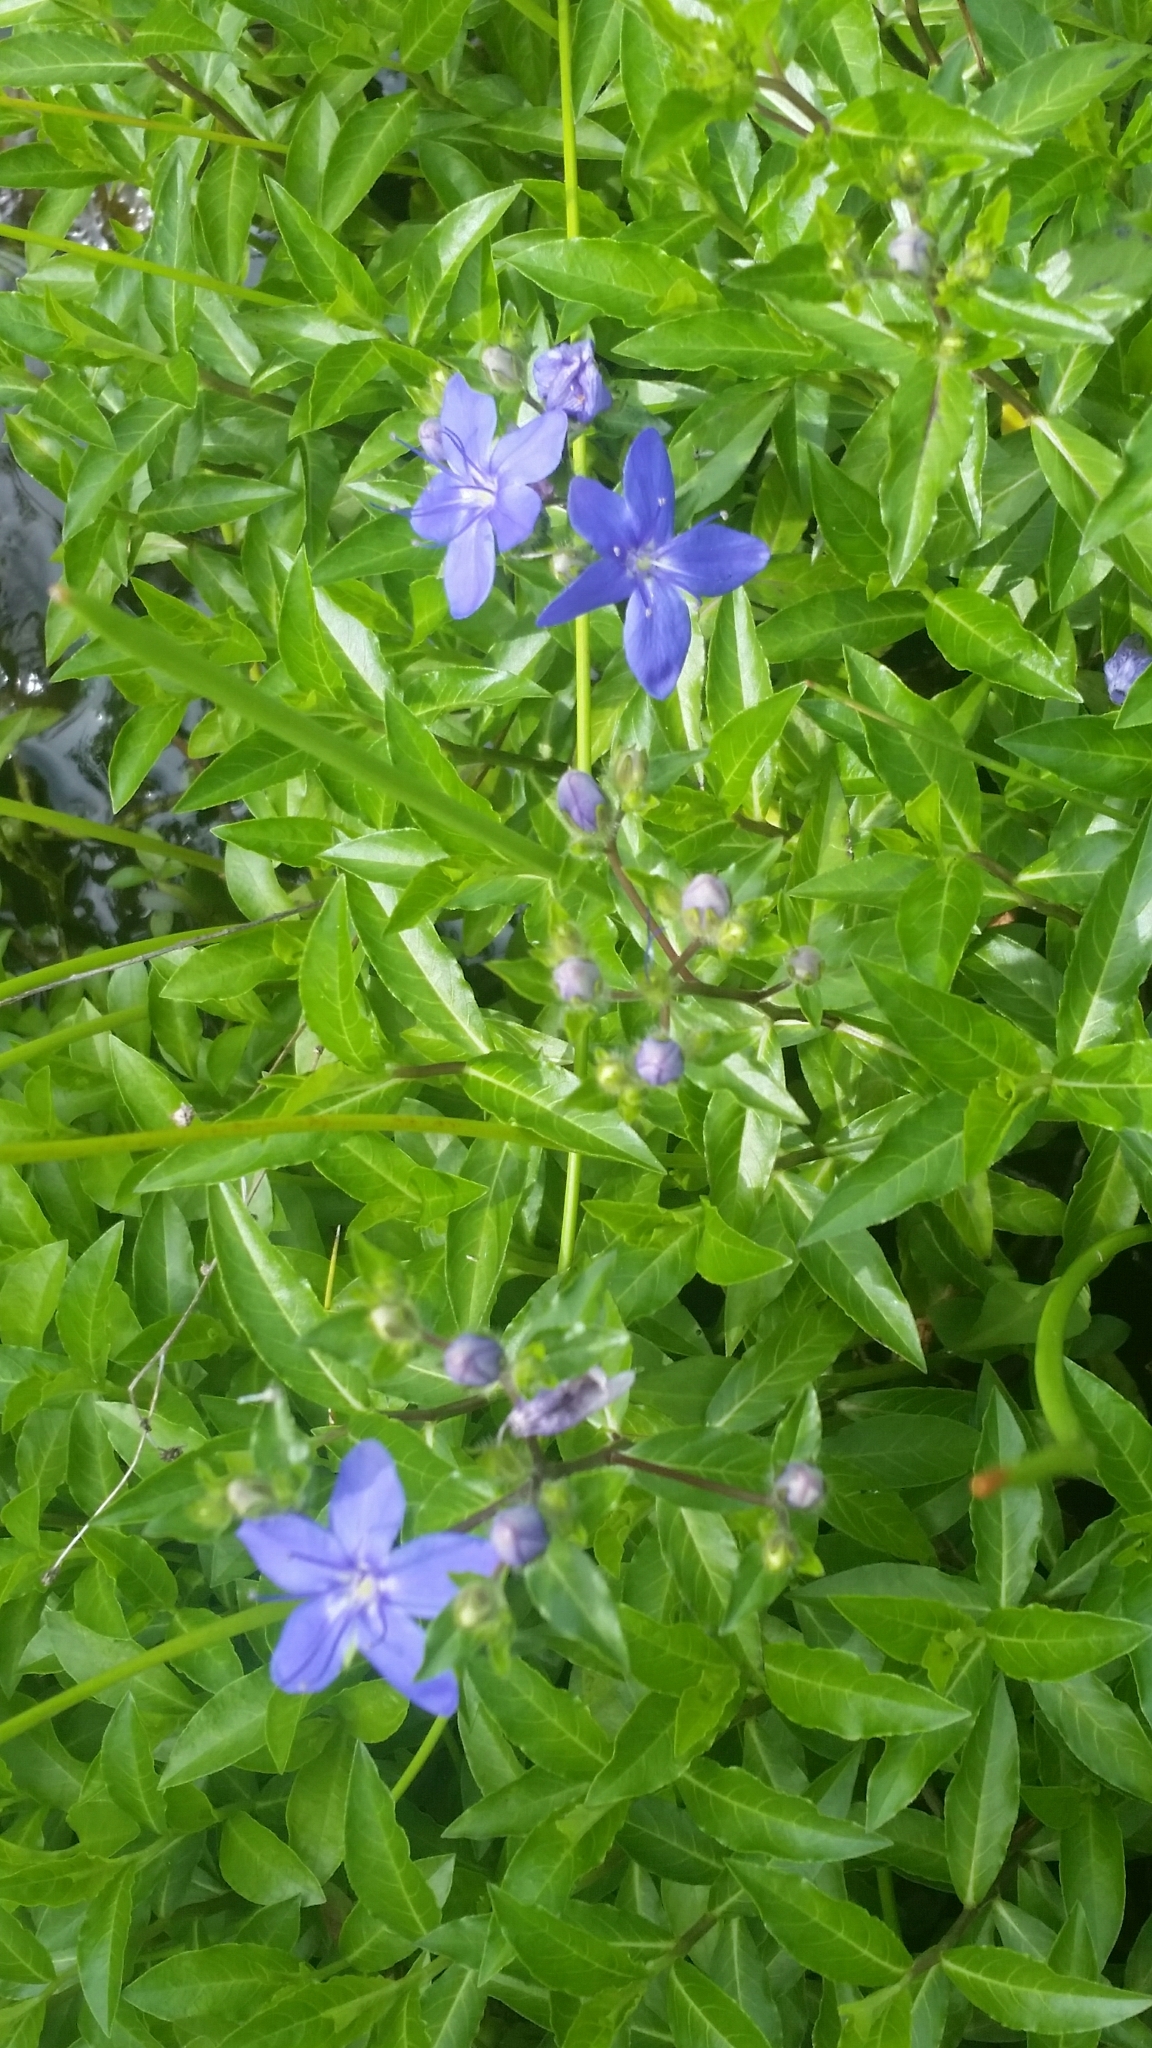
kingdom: Plantae
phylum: Tracheophyta
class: Magnoliopsida
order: Solanales
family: Hydroleaceae
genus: Hydrolea
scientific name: Hydrolea corymbosa
